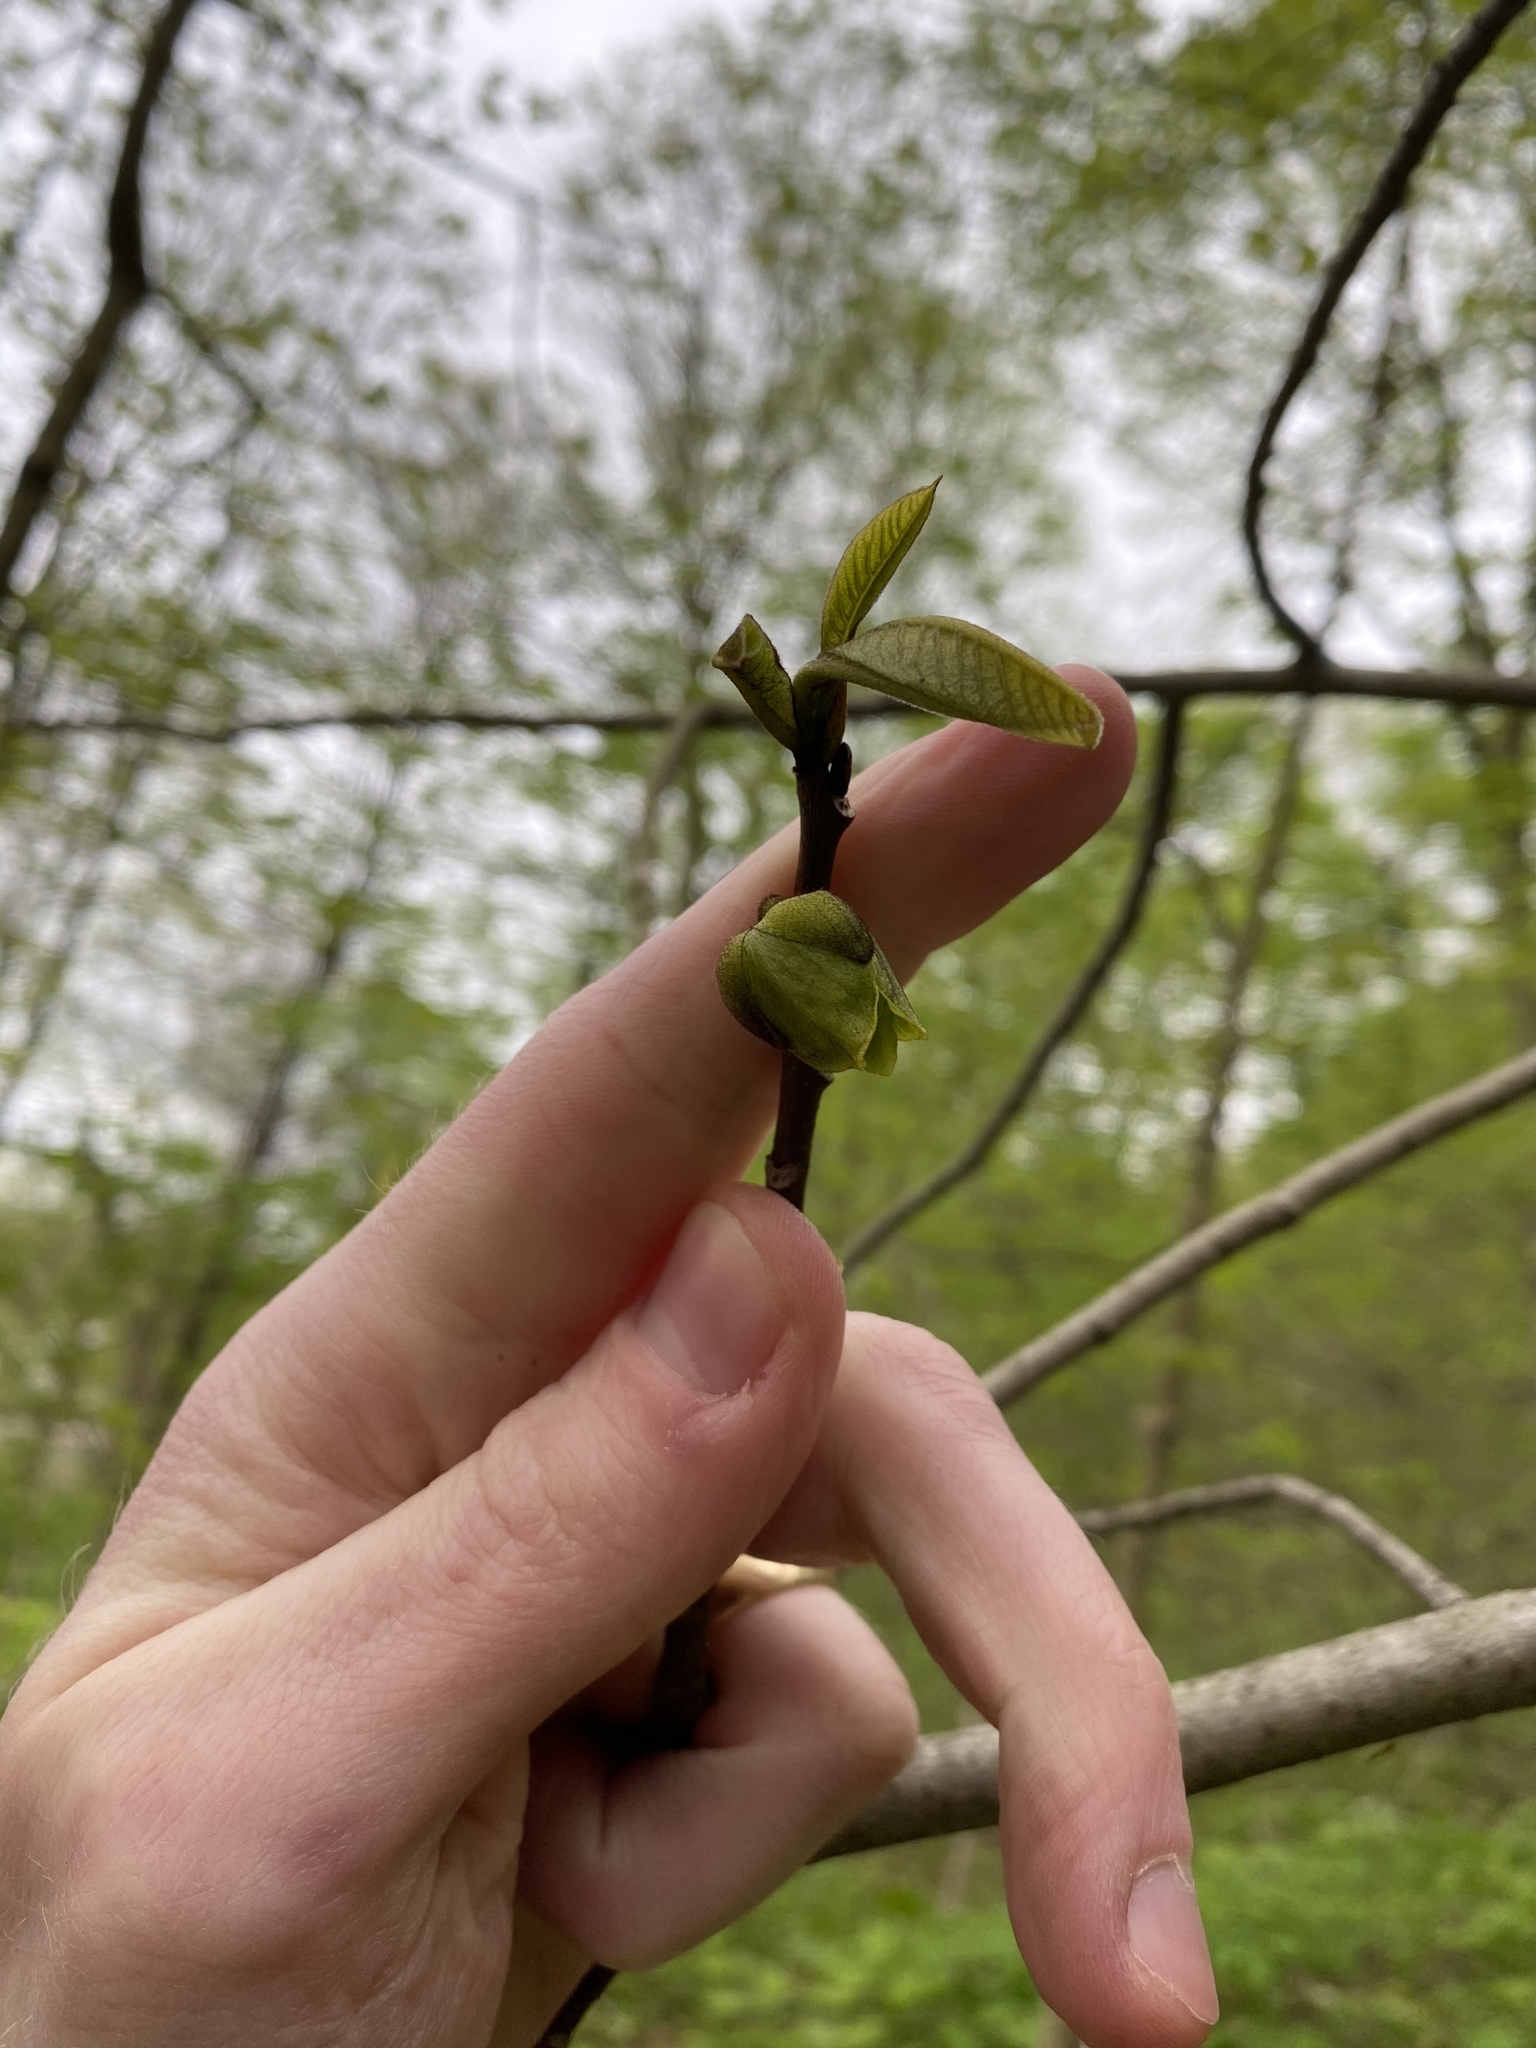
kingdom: Plantae
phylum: Tracheophyta
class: Magnoliopsida
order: Magnoliales
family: Annonaceae
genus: Asimina
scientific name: Asimina triloba
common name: Dog-banana
